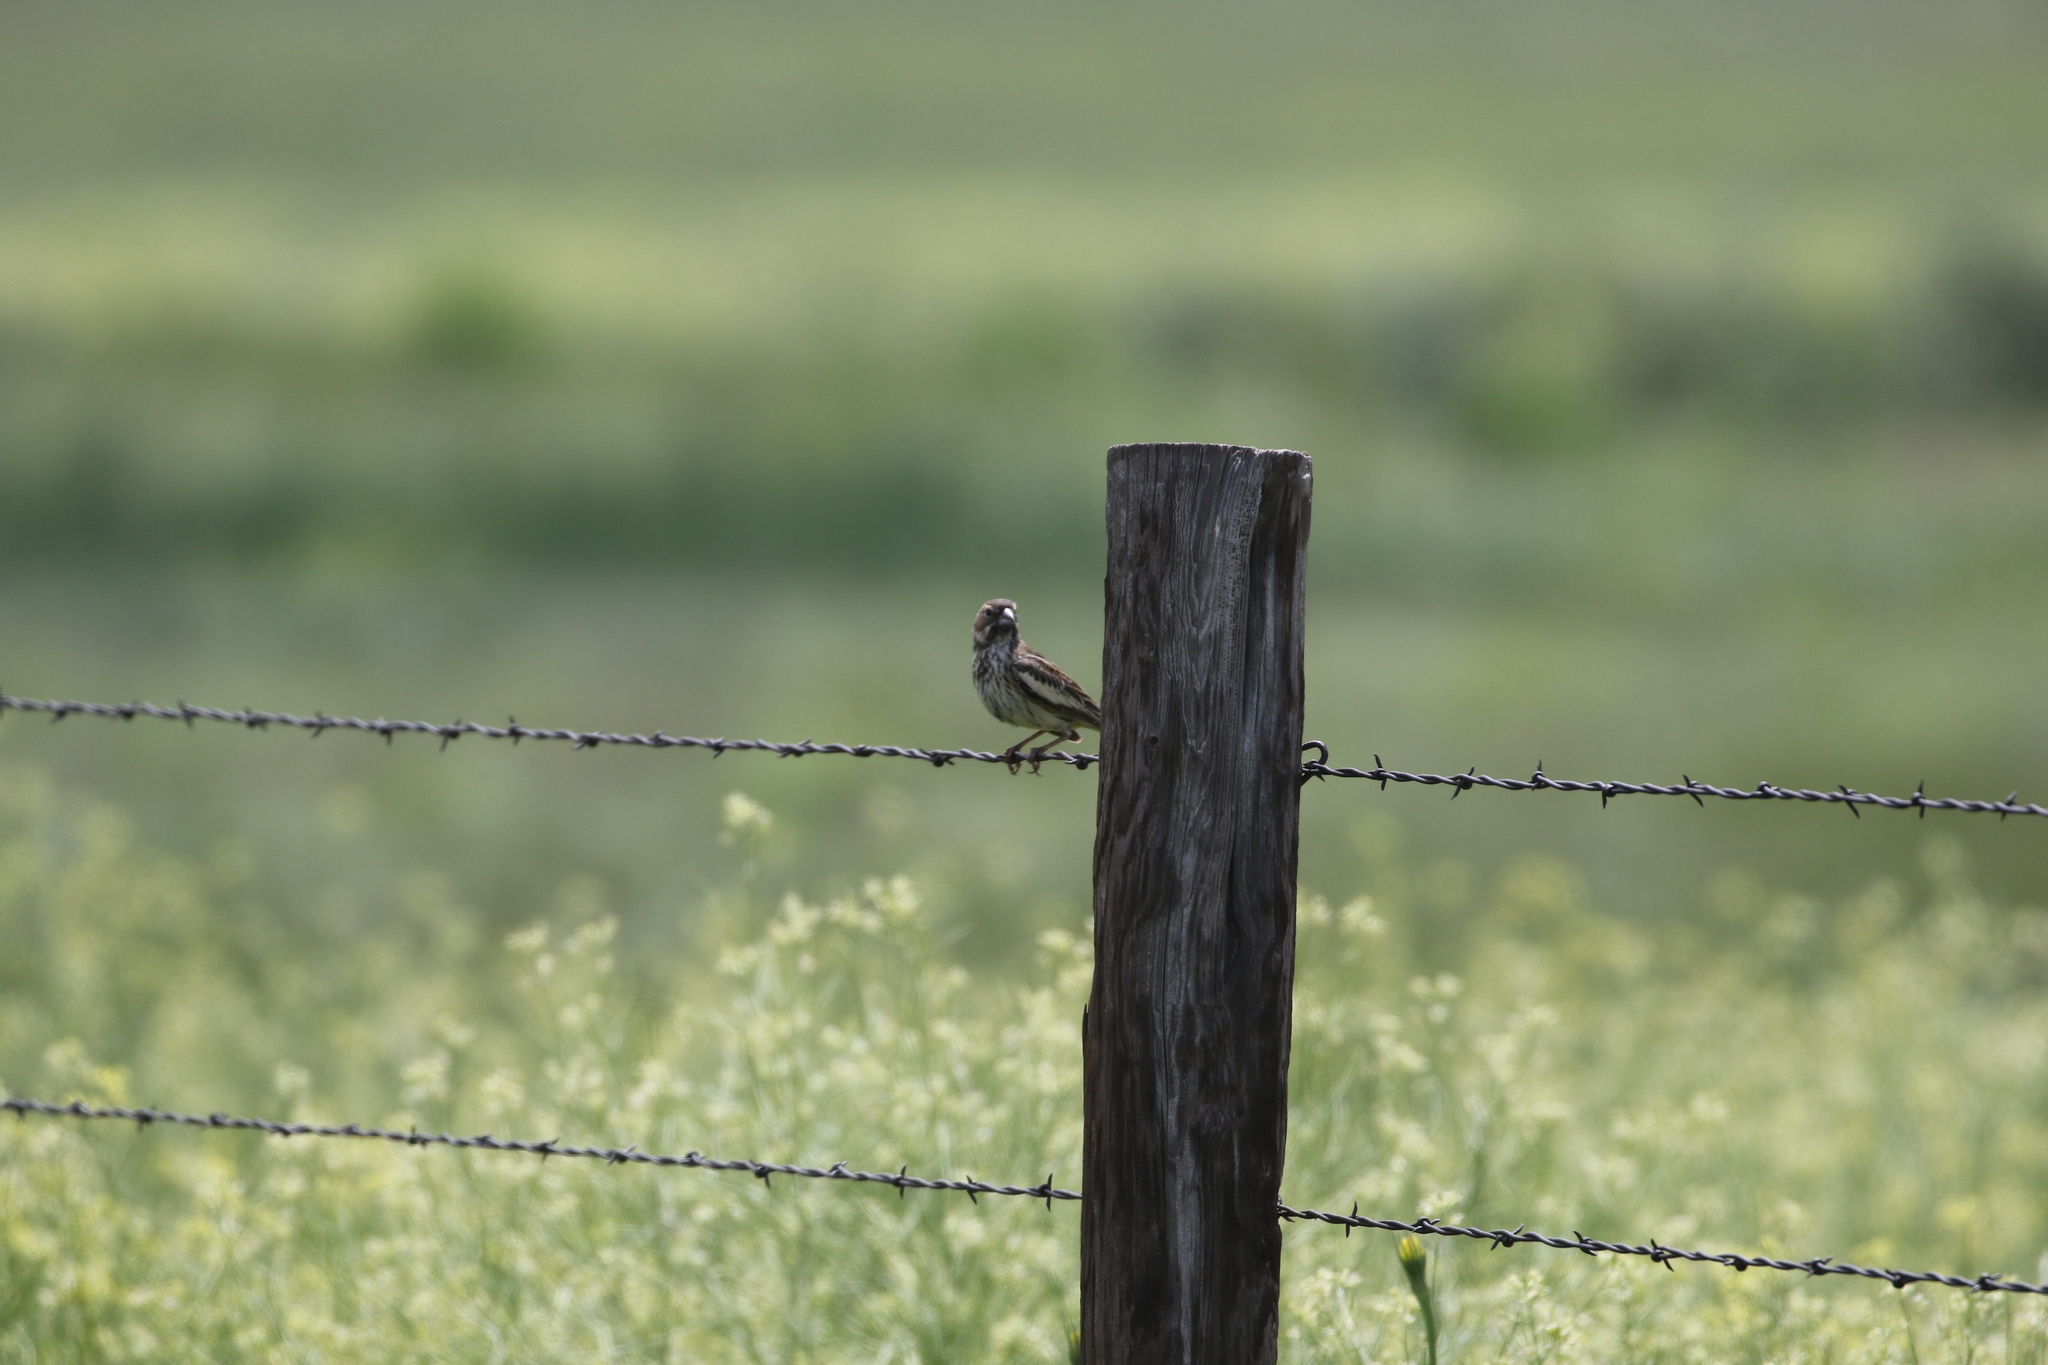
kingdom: Animalia
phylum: Chordata
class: Aves
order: Passeriformes
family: Passerellidae
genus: Calamospiza
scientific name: Calamospiza melanocorys
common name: Lark bunting
